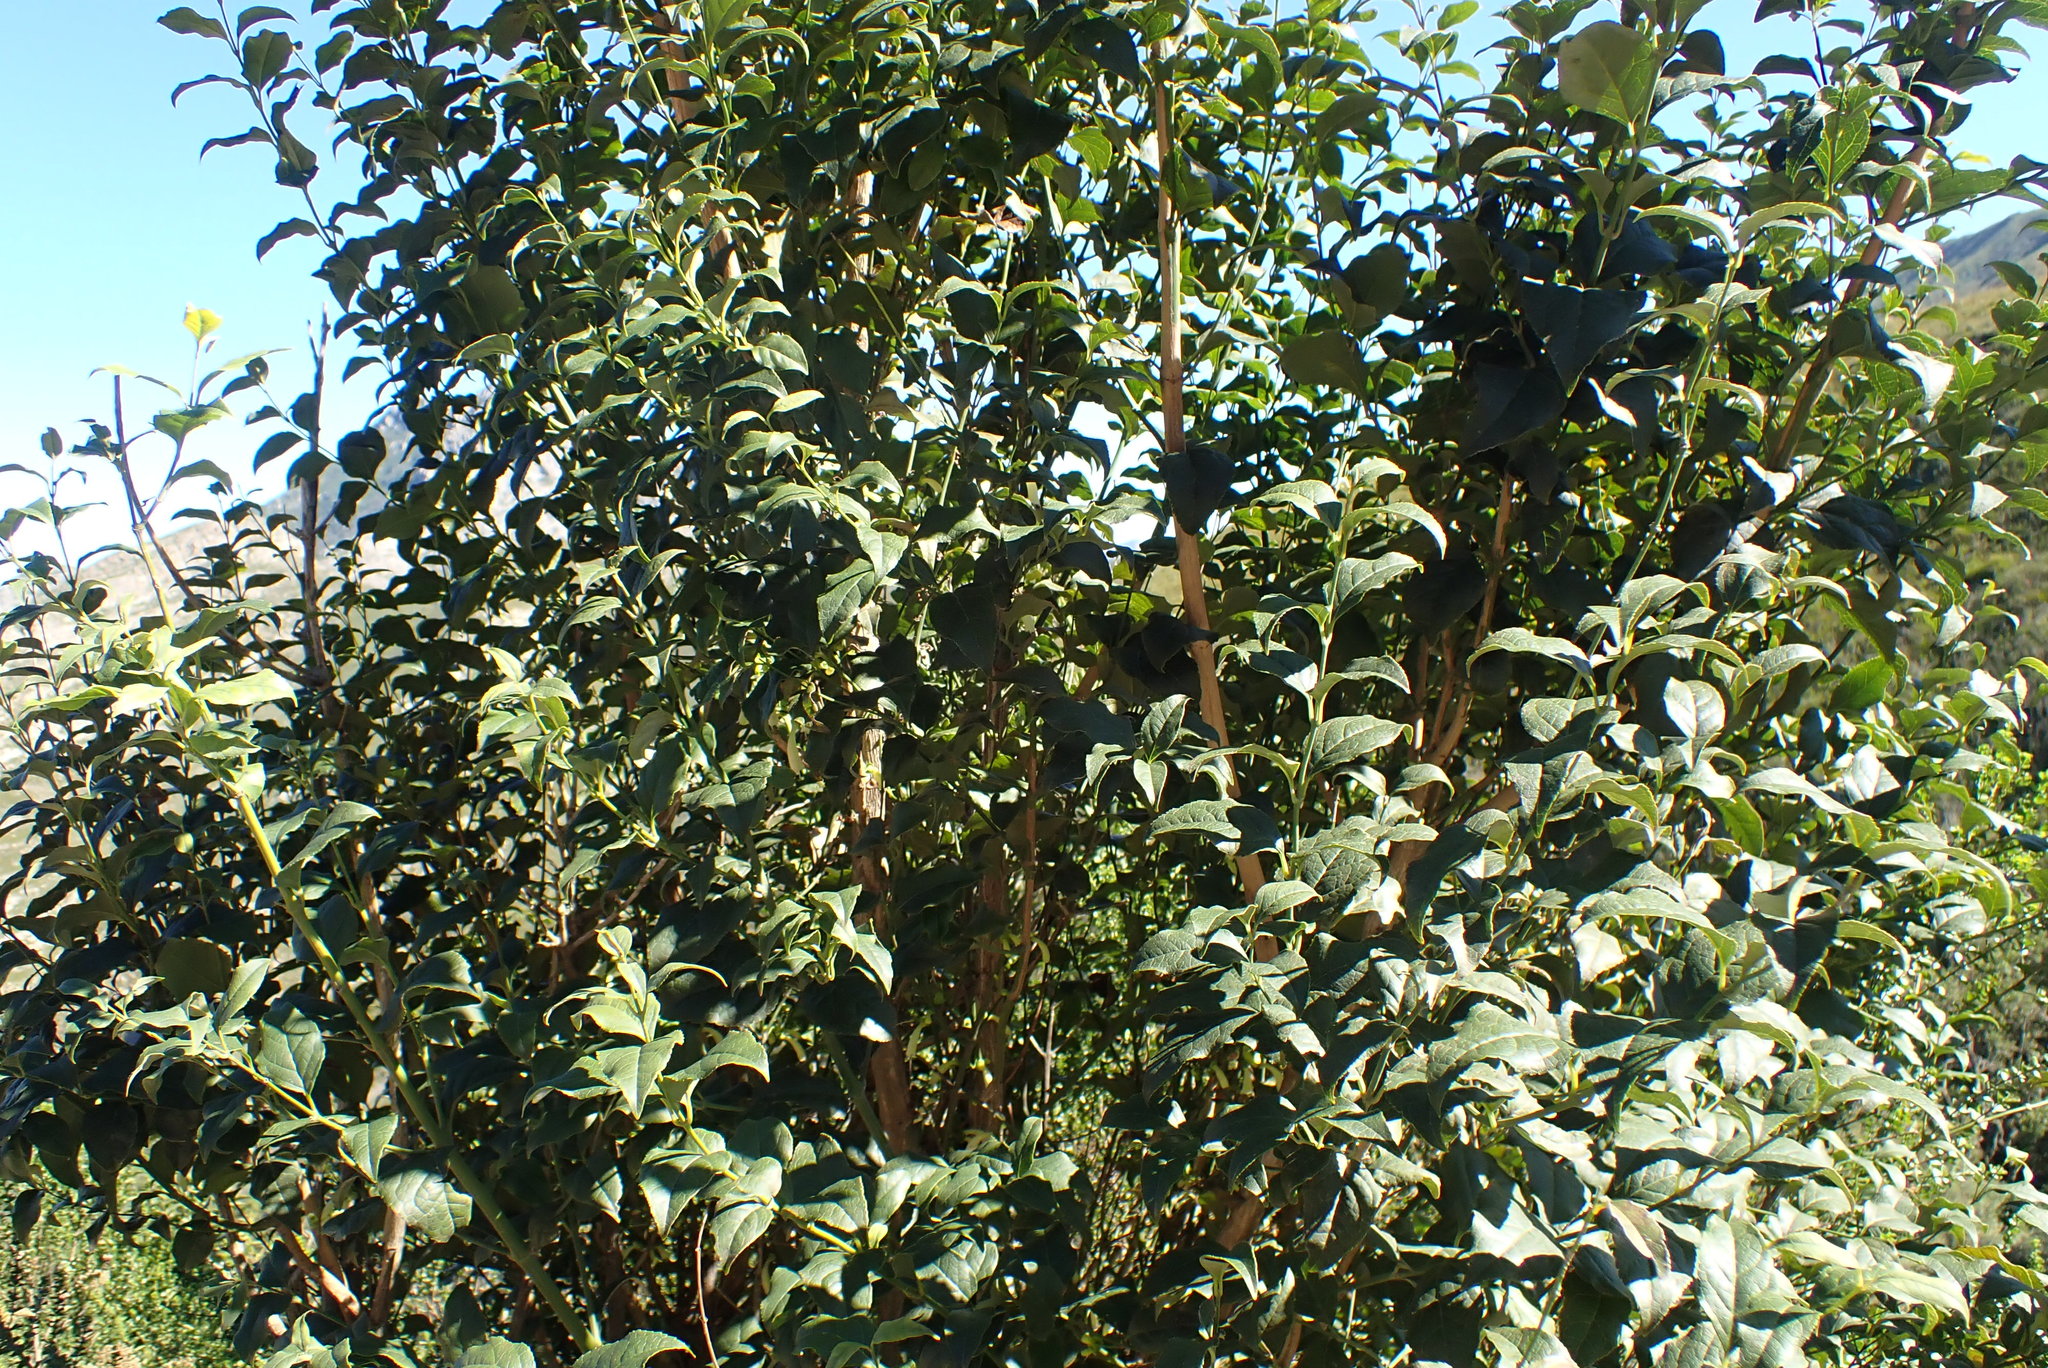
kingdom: Plantae
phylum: Tracheophyta
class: Magnoliopsida
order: Lamiales
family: Stilbaceae
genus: Halleria
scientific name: Halleria lucida
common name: Tree fuschia
